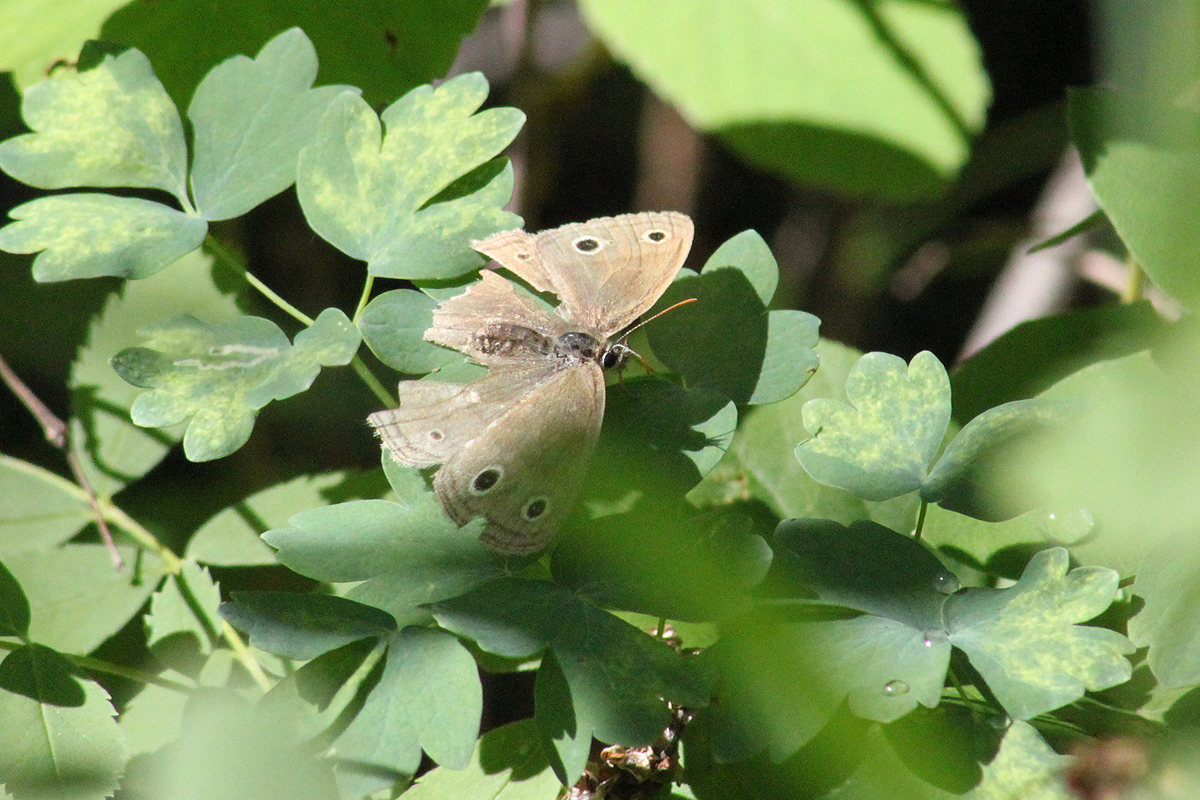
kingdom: Animalia
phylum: Arthropoda
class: Insecta
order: Lepidoptera
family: Nymphalidae
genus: Euptychia
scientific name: Euptychia cymela
